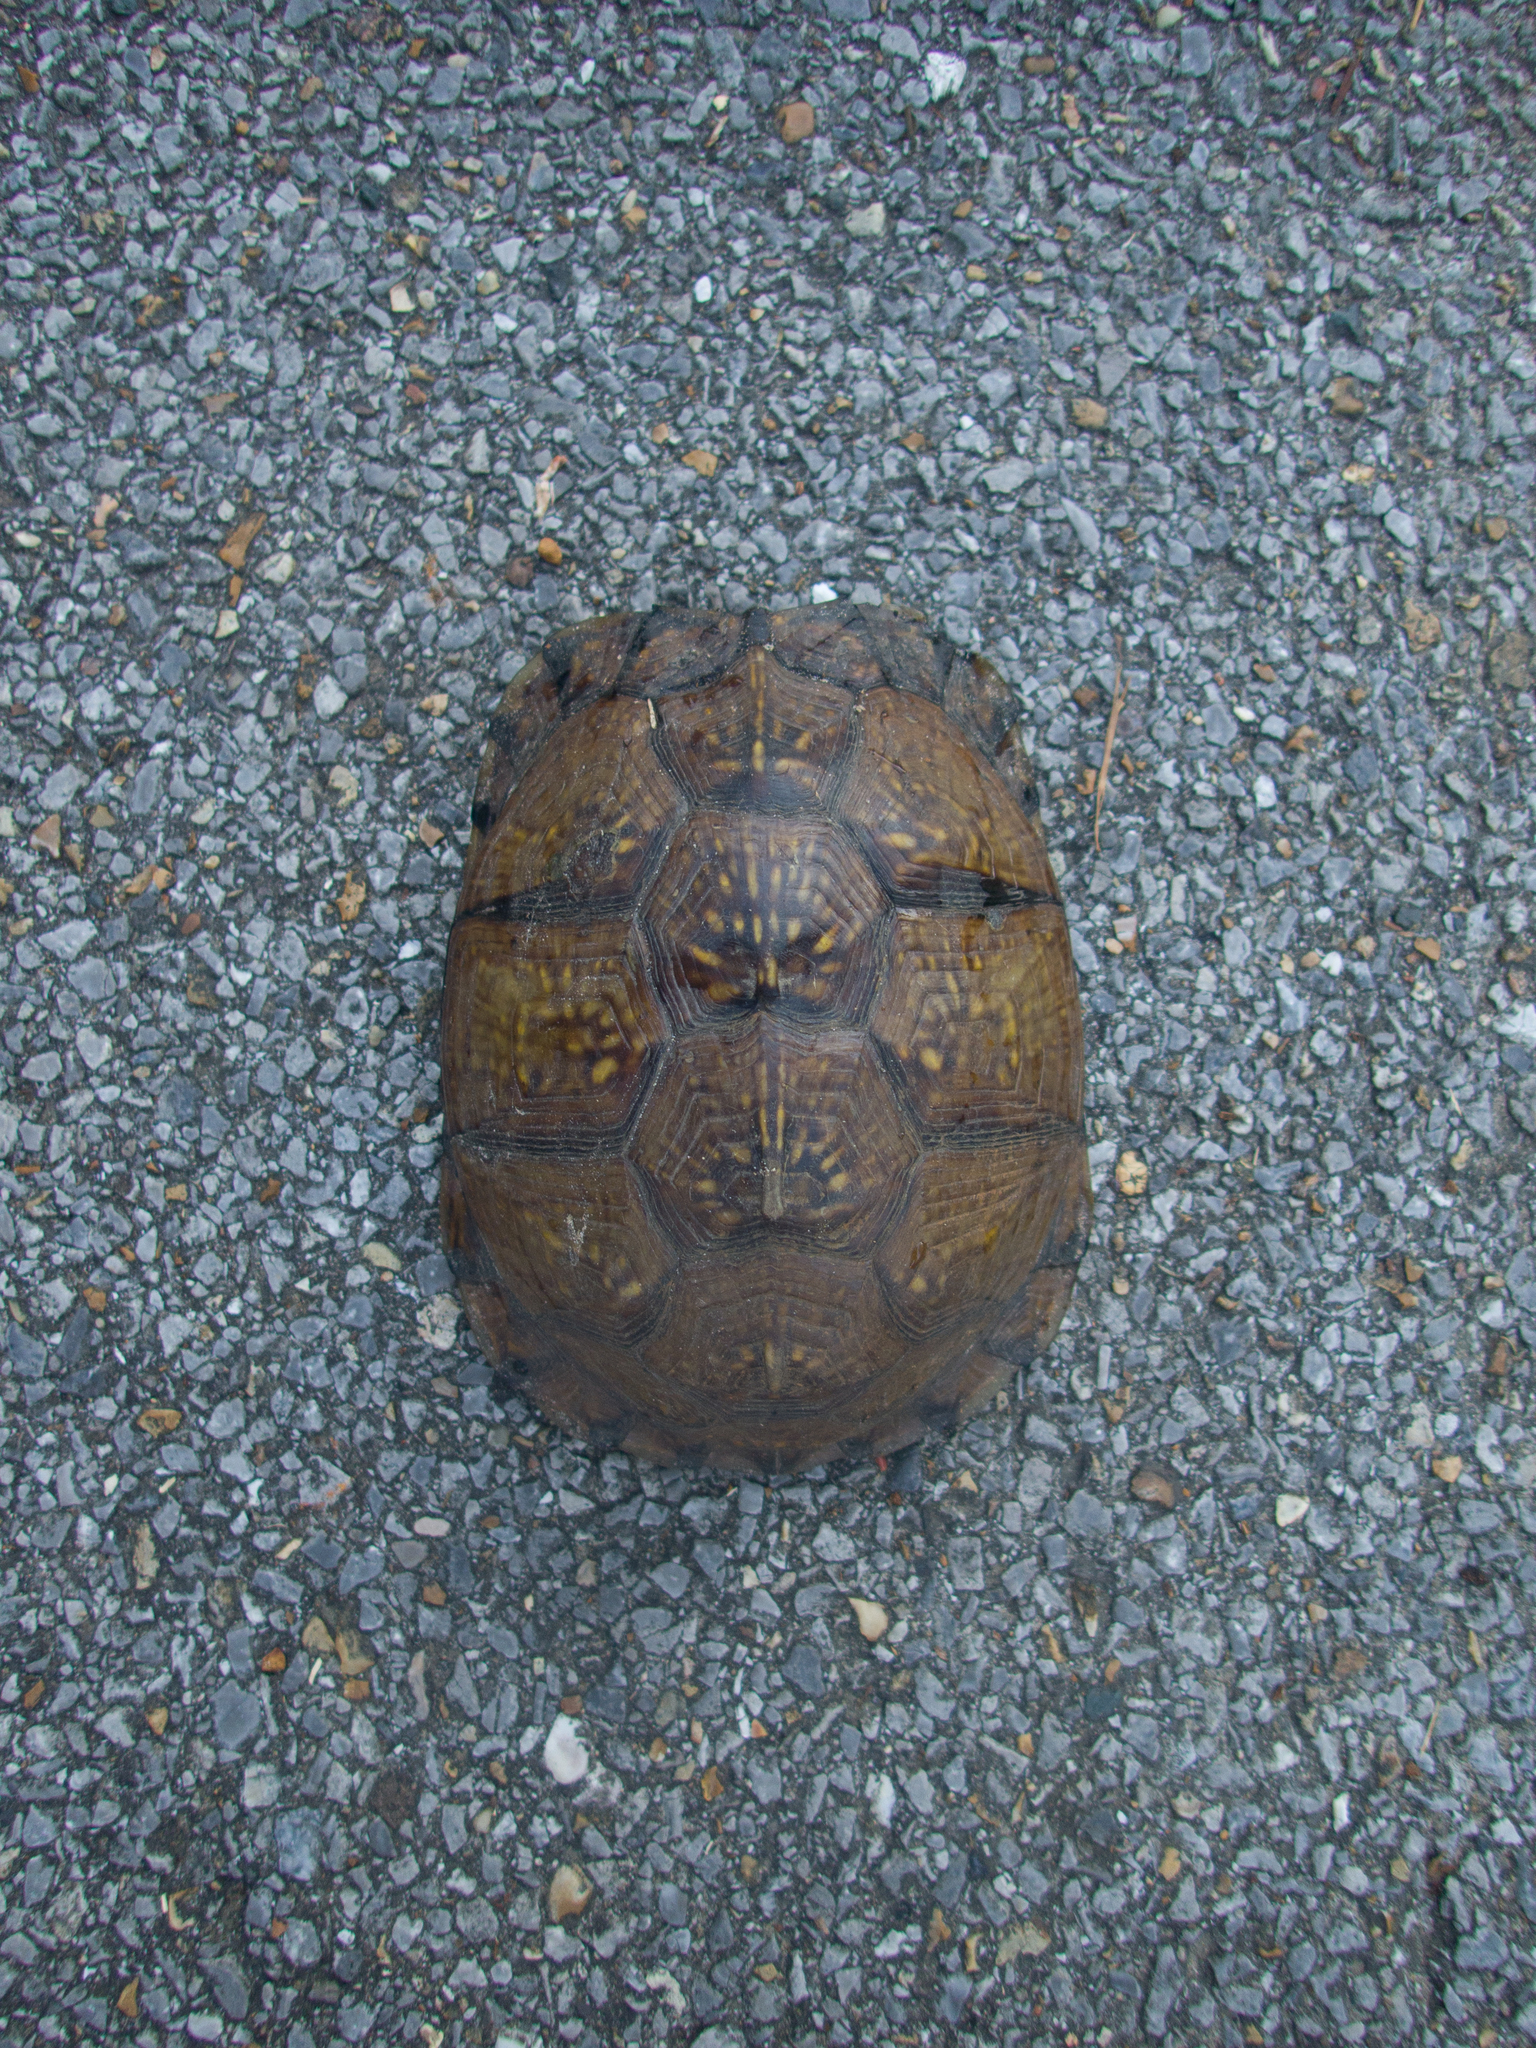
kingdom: Animalia
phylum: Chordata
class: Testudines
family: Emydidae
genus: Terrapene
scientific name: Terrapene carolina
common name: Common box turtle
